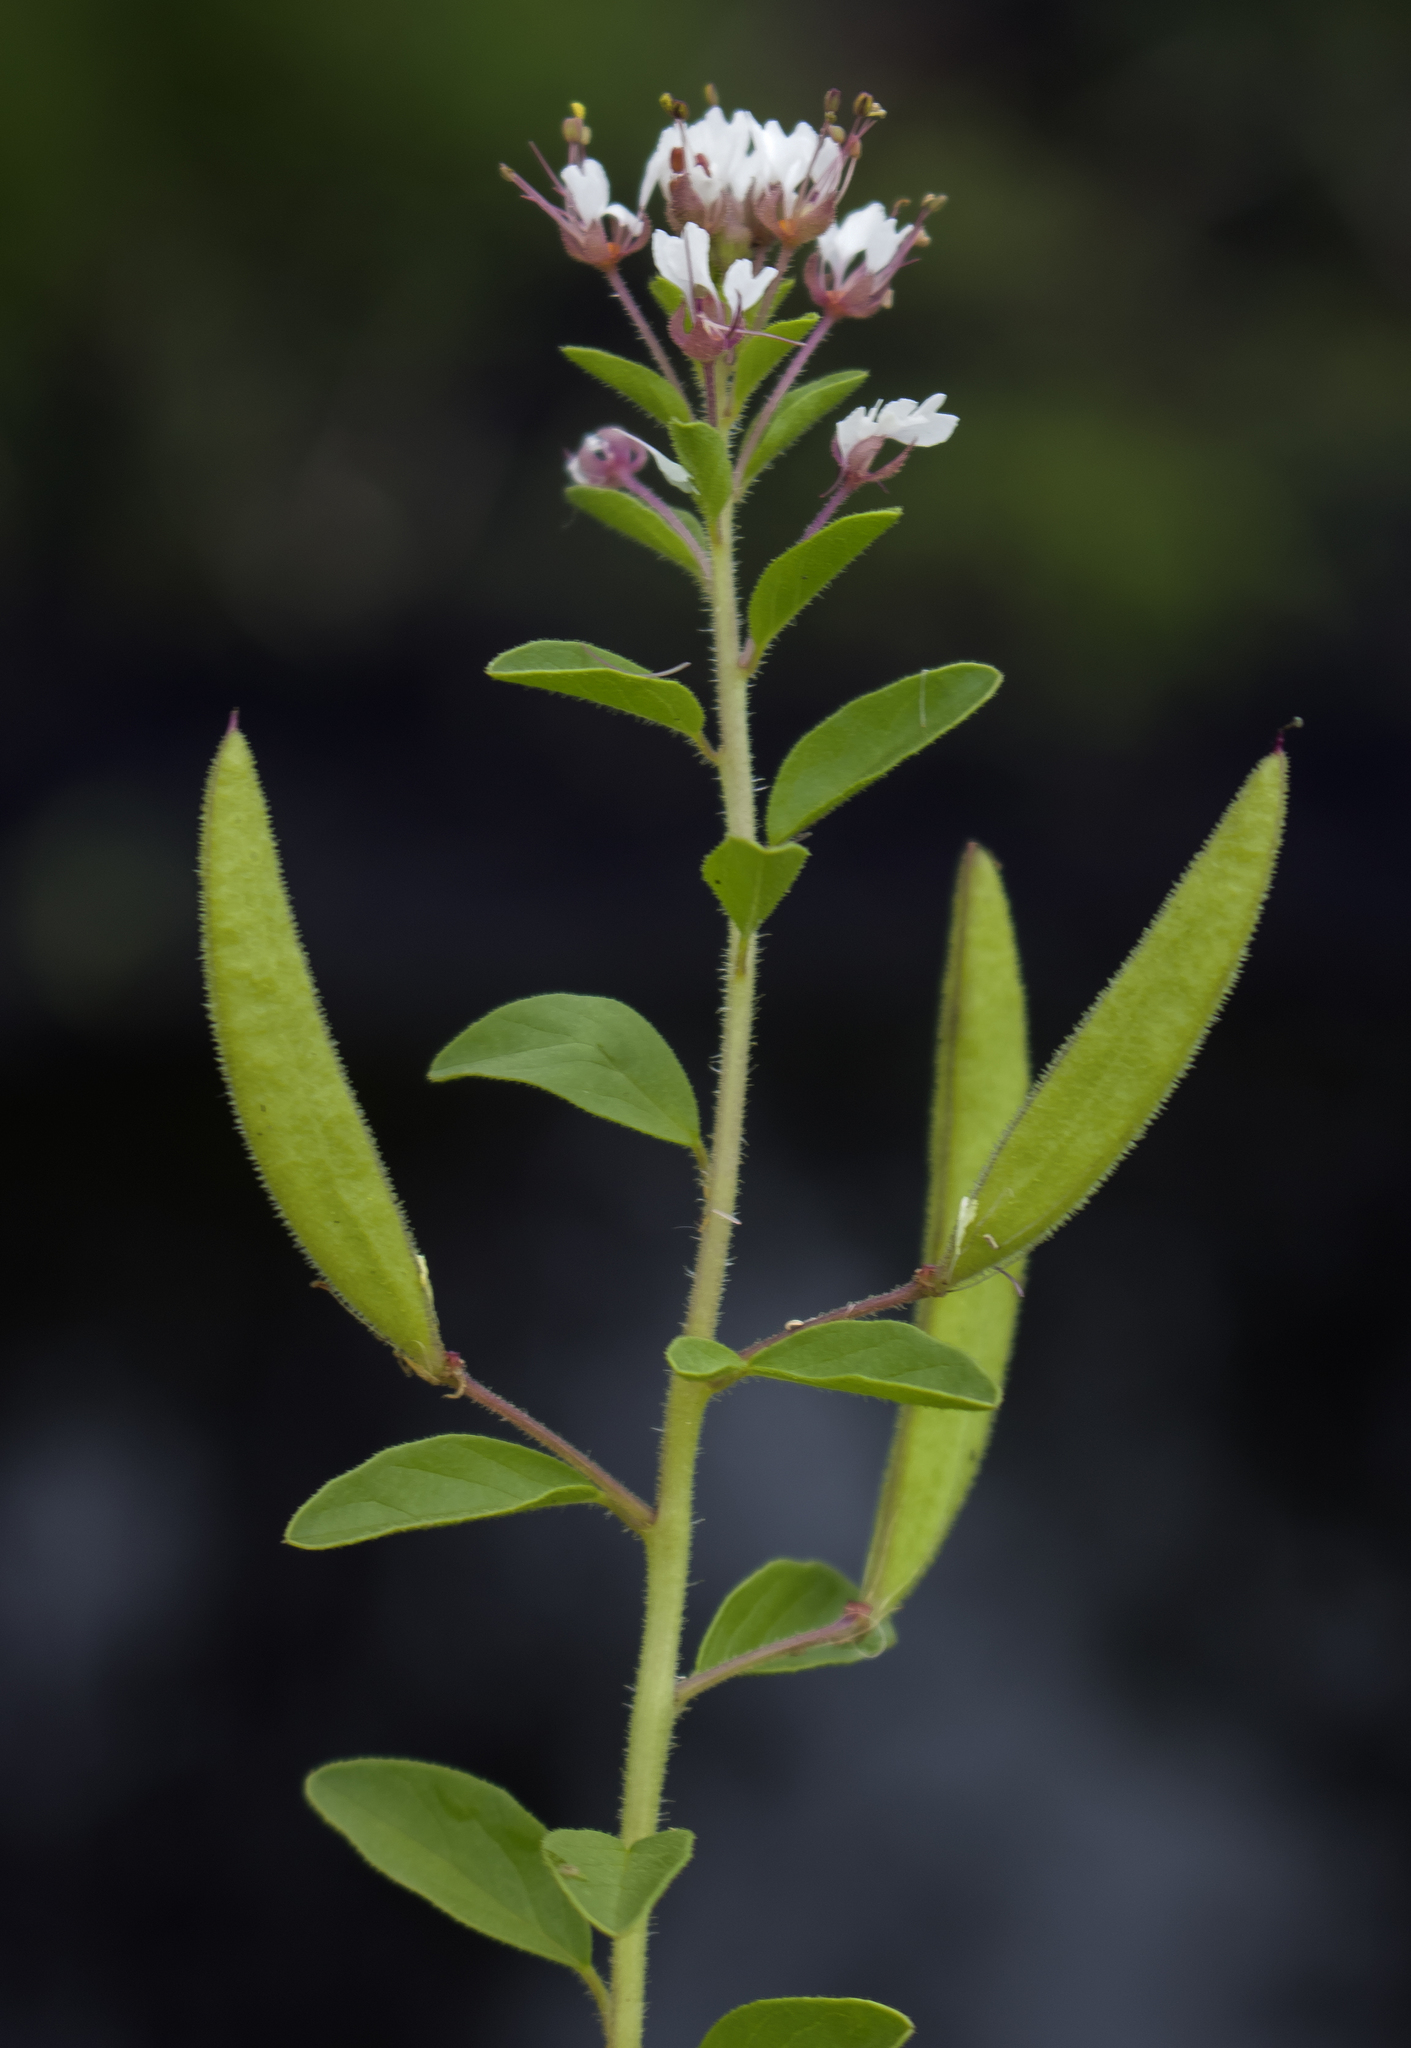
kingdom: Plantae
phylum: Tracheophyta
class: Magnoliopsida
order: Brassicales
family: Cleomaceae
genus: Polanisia
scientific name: Polanisia dodecandra
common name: Clammyweed
